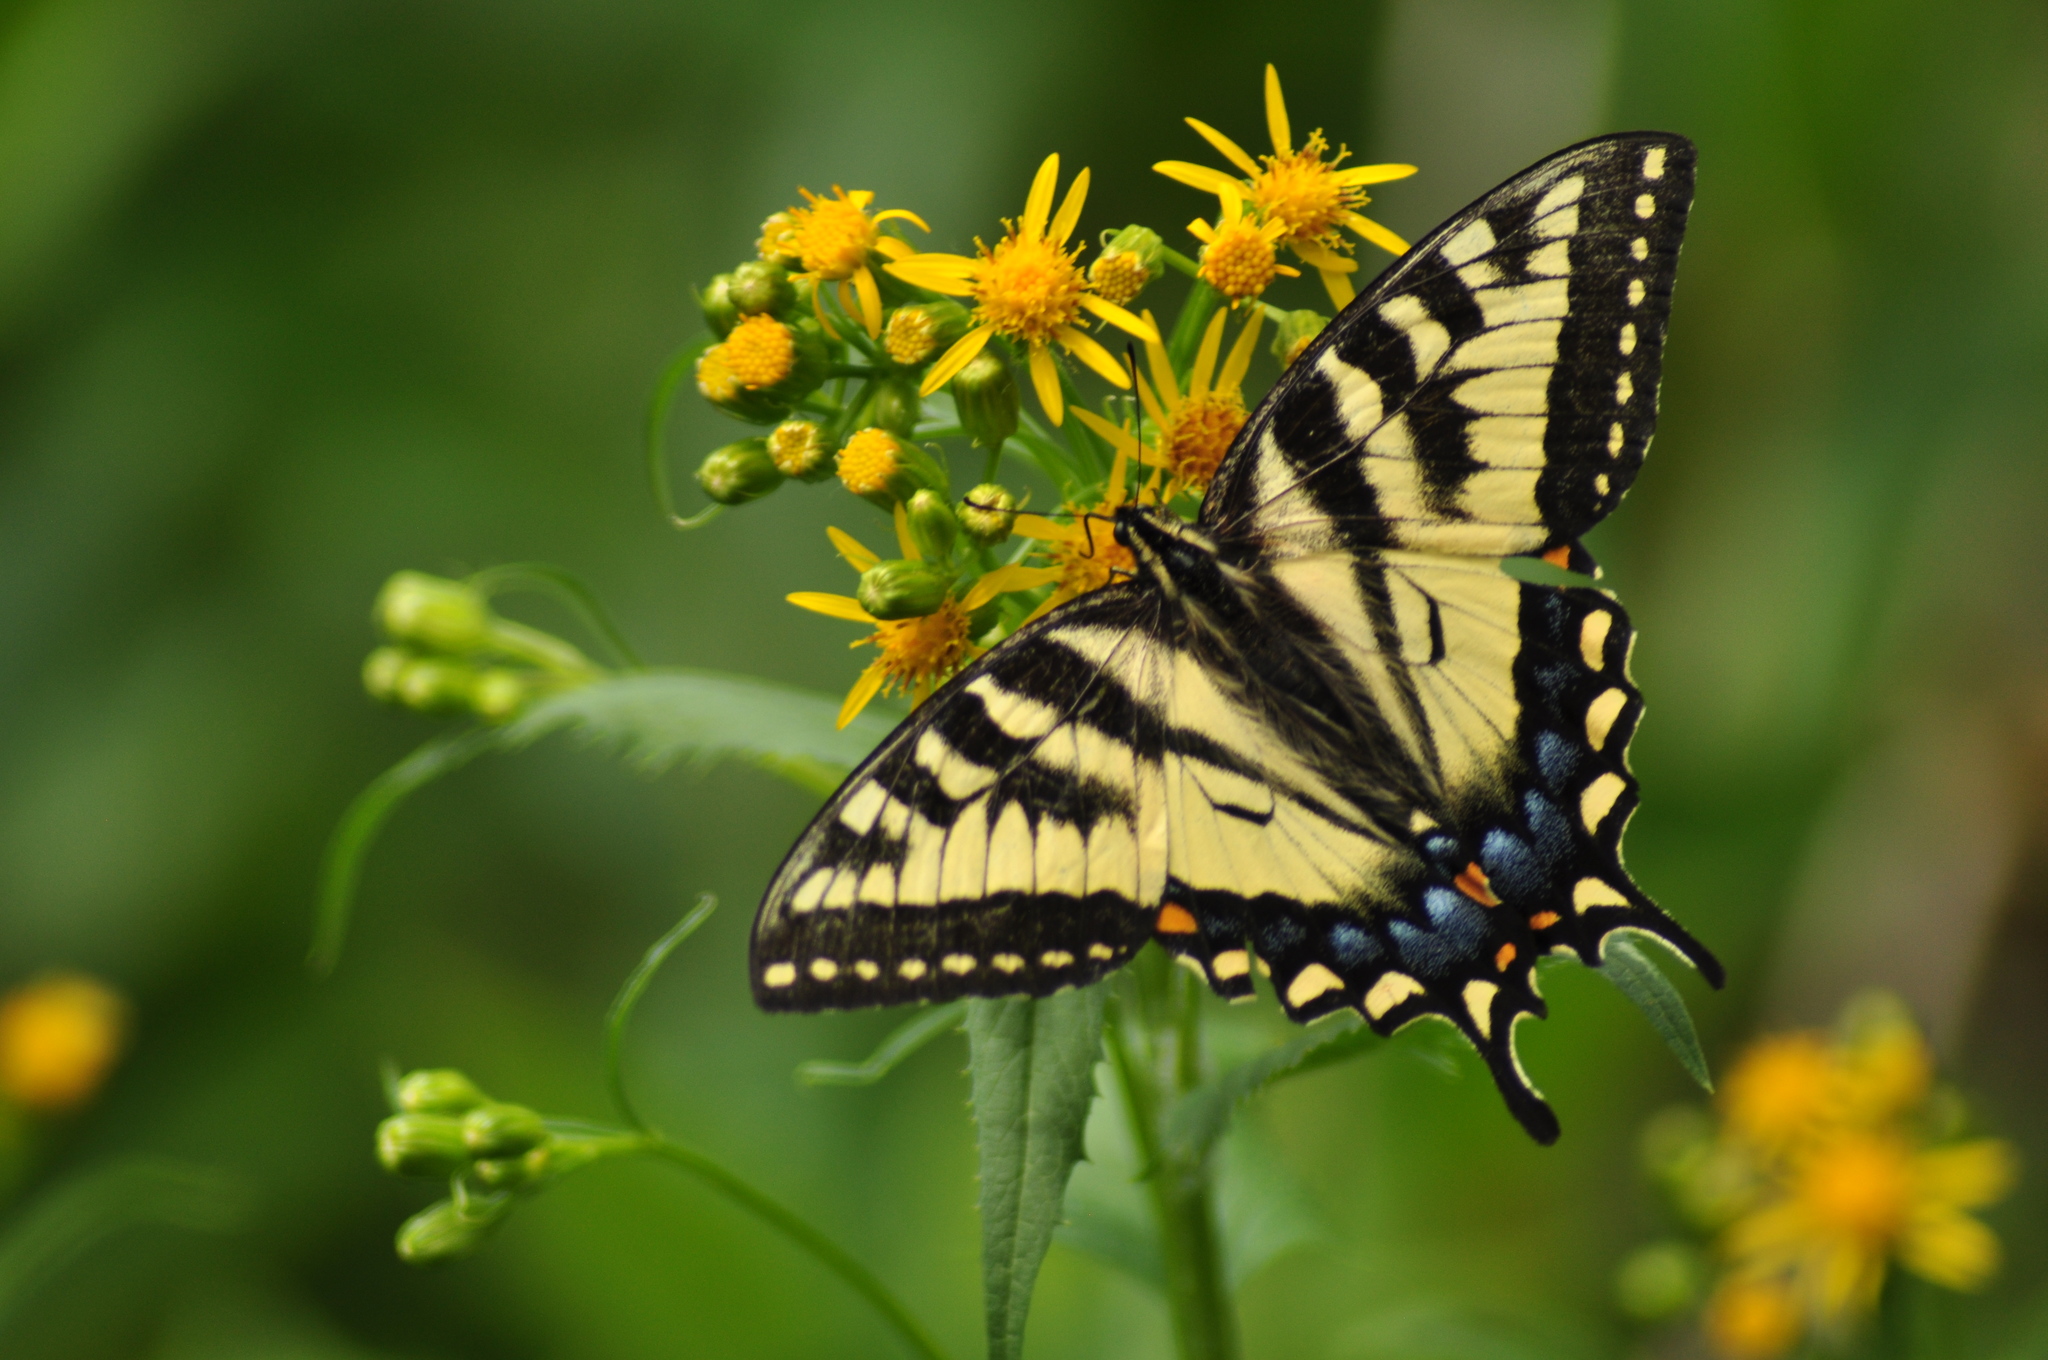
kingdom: Animalia
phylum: Arthropoda
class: Insecta
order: Lepidoptera
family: Papilionidae
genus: Papilio
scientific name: Papilio canadensis
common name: Canadian tiger swallowtail
